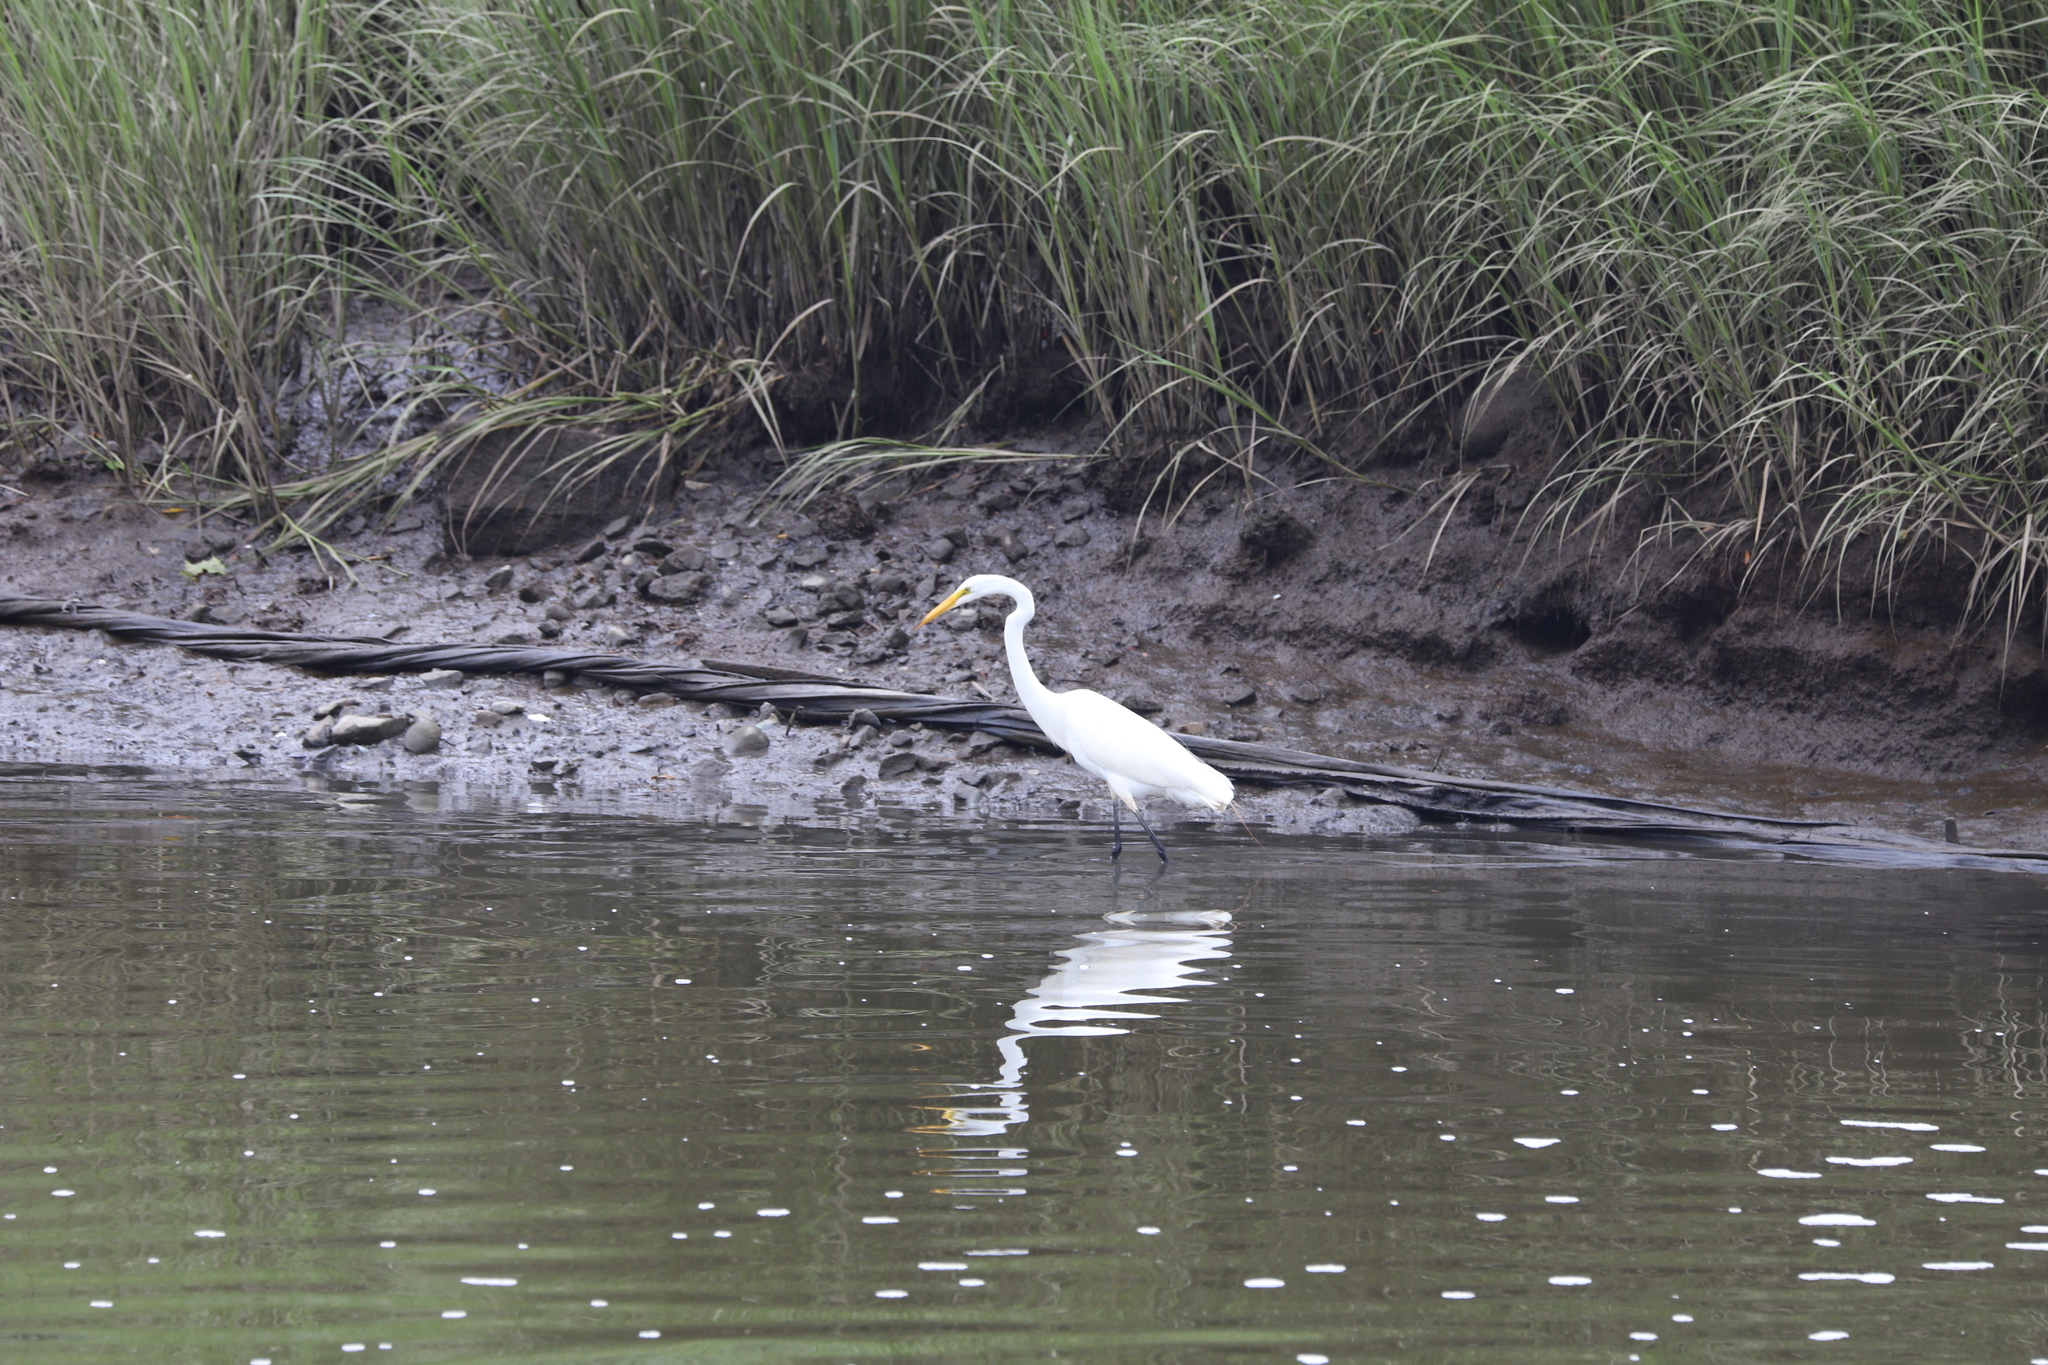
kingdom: Animalia
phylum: Chordata
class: Aves
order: Pelecaniformes
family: Ardeidae
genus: Ardea
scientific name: Ardea alba
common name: Great egret
